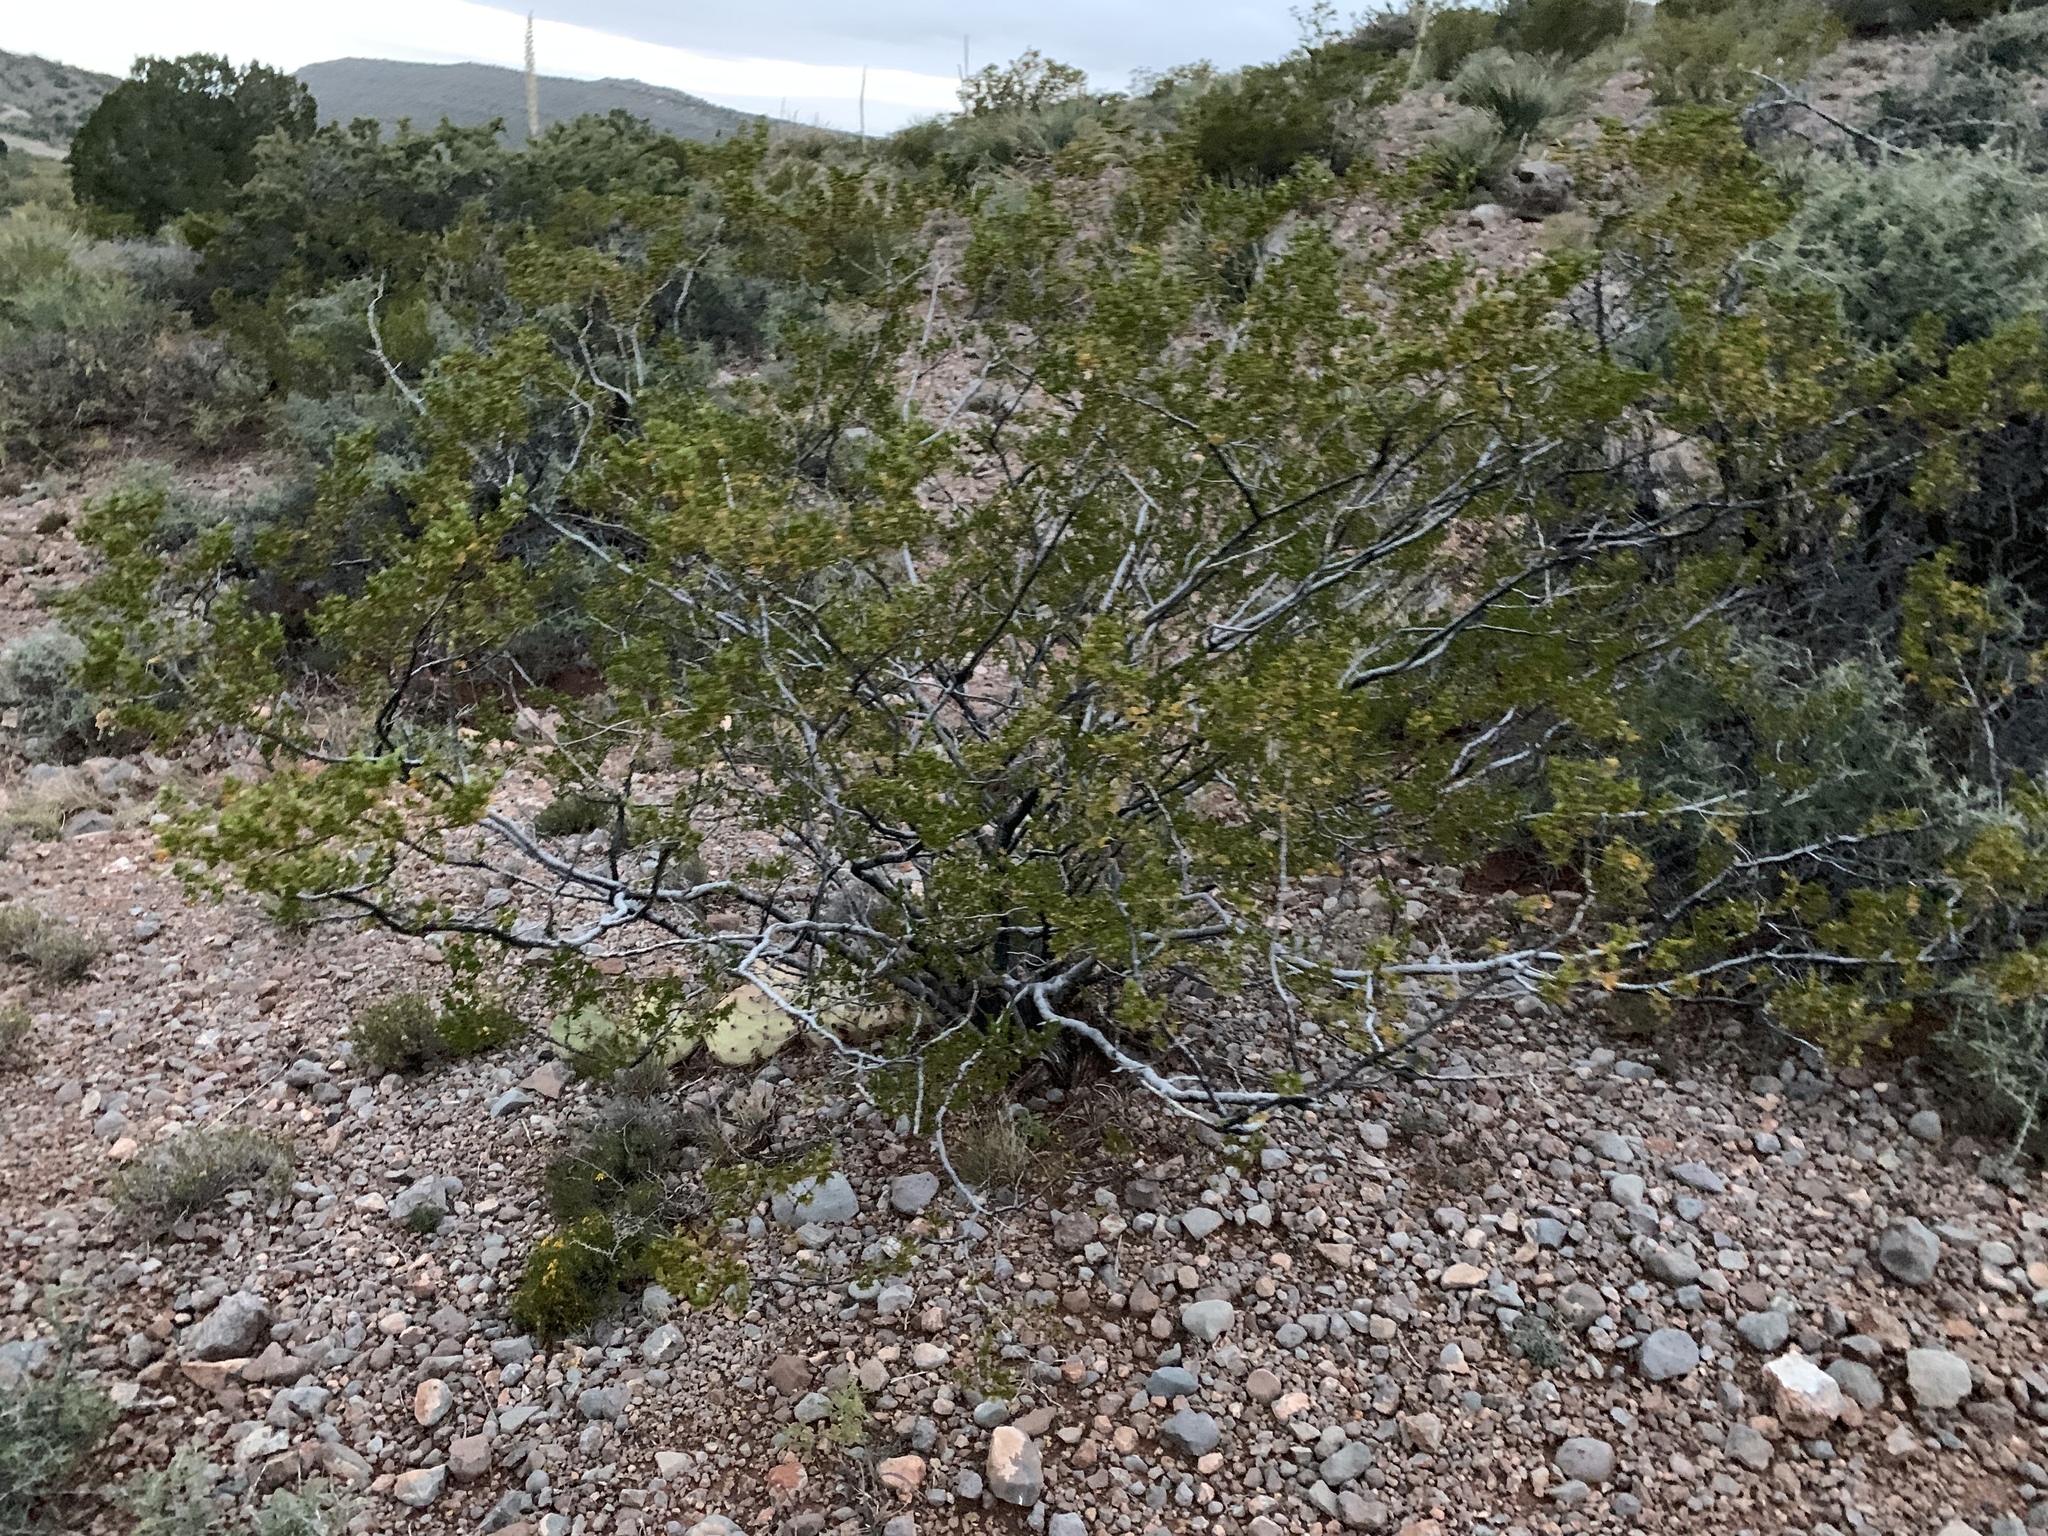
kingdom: Plantae
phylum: Tracheophyta
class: Magnoliopsida
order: Zygophyllales
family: Zygophyllaceae
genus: Larrea
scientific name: Larrea tridentata
